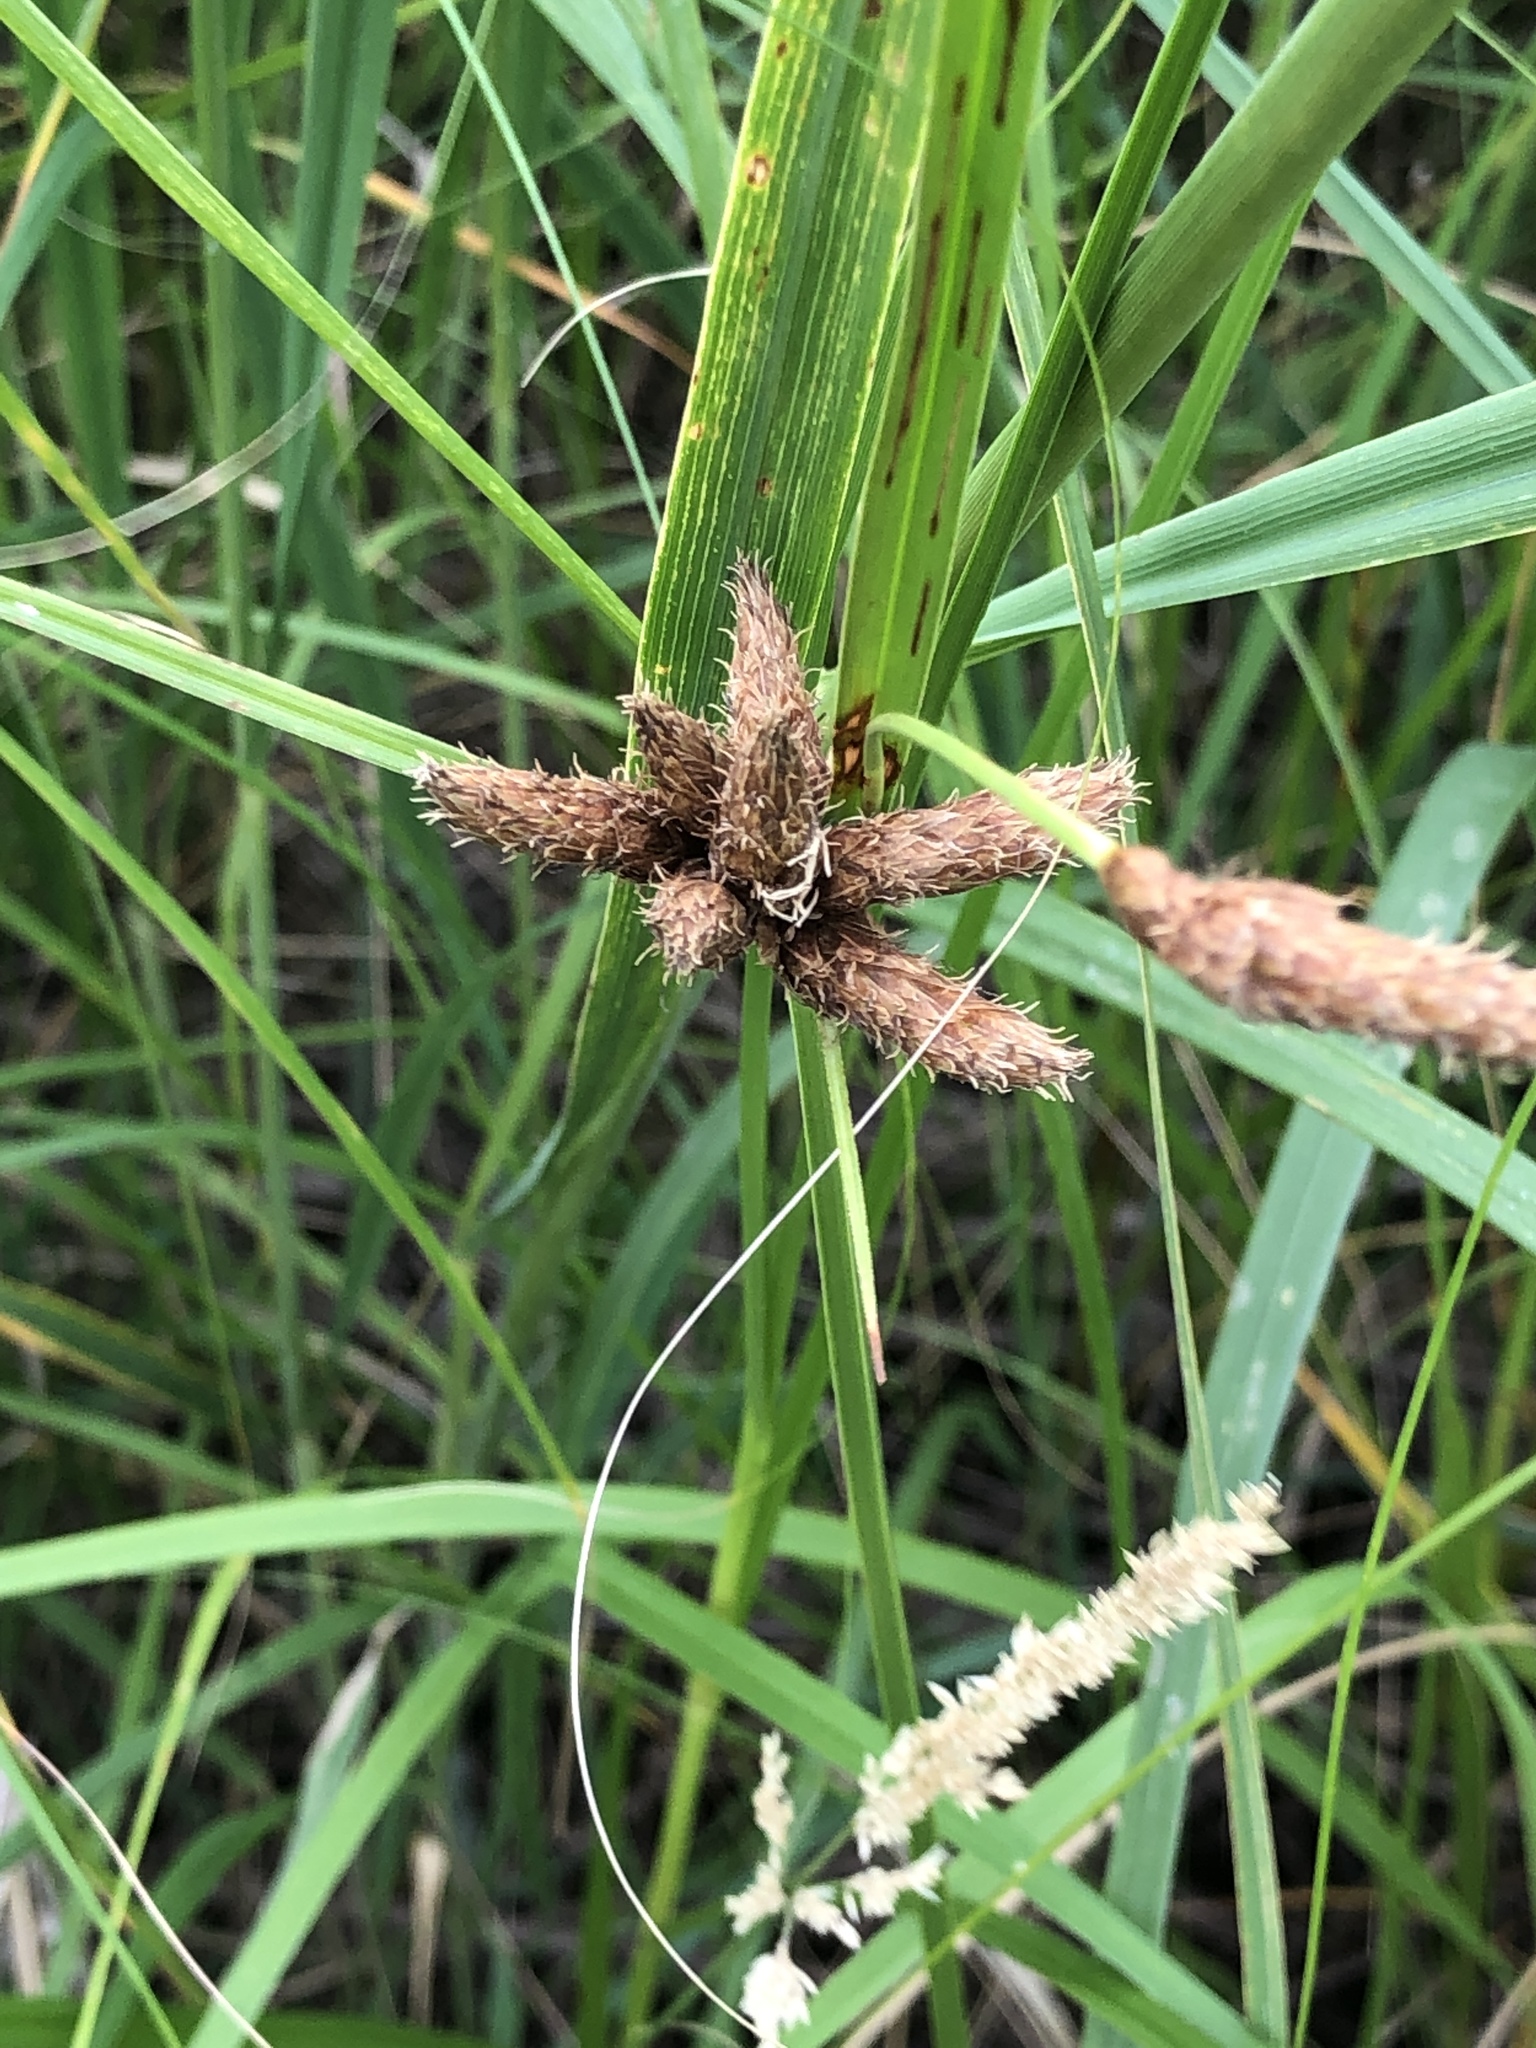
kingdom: Plantae
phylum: Tracheophyta
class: Liliopsida
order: Poales
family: Cyperaceae
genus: Bolboschoenus
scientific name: Bolboschoenus maritimus
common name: Sea club-rush
